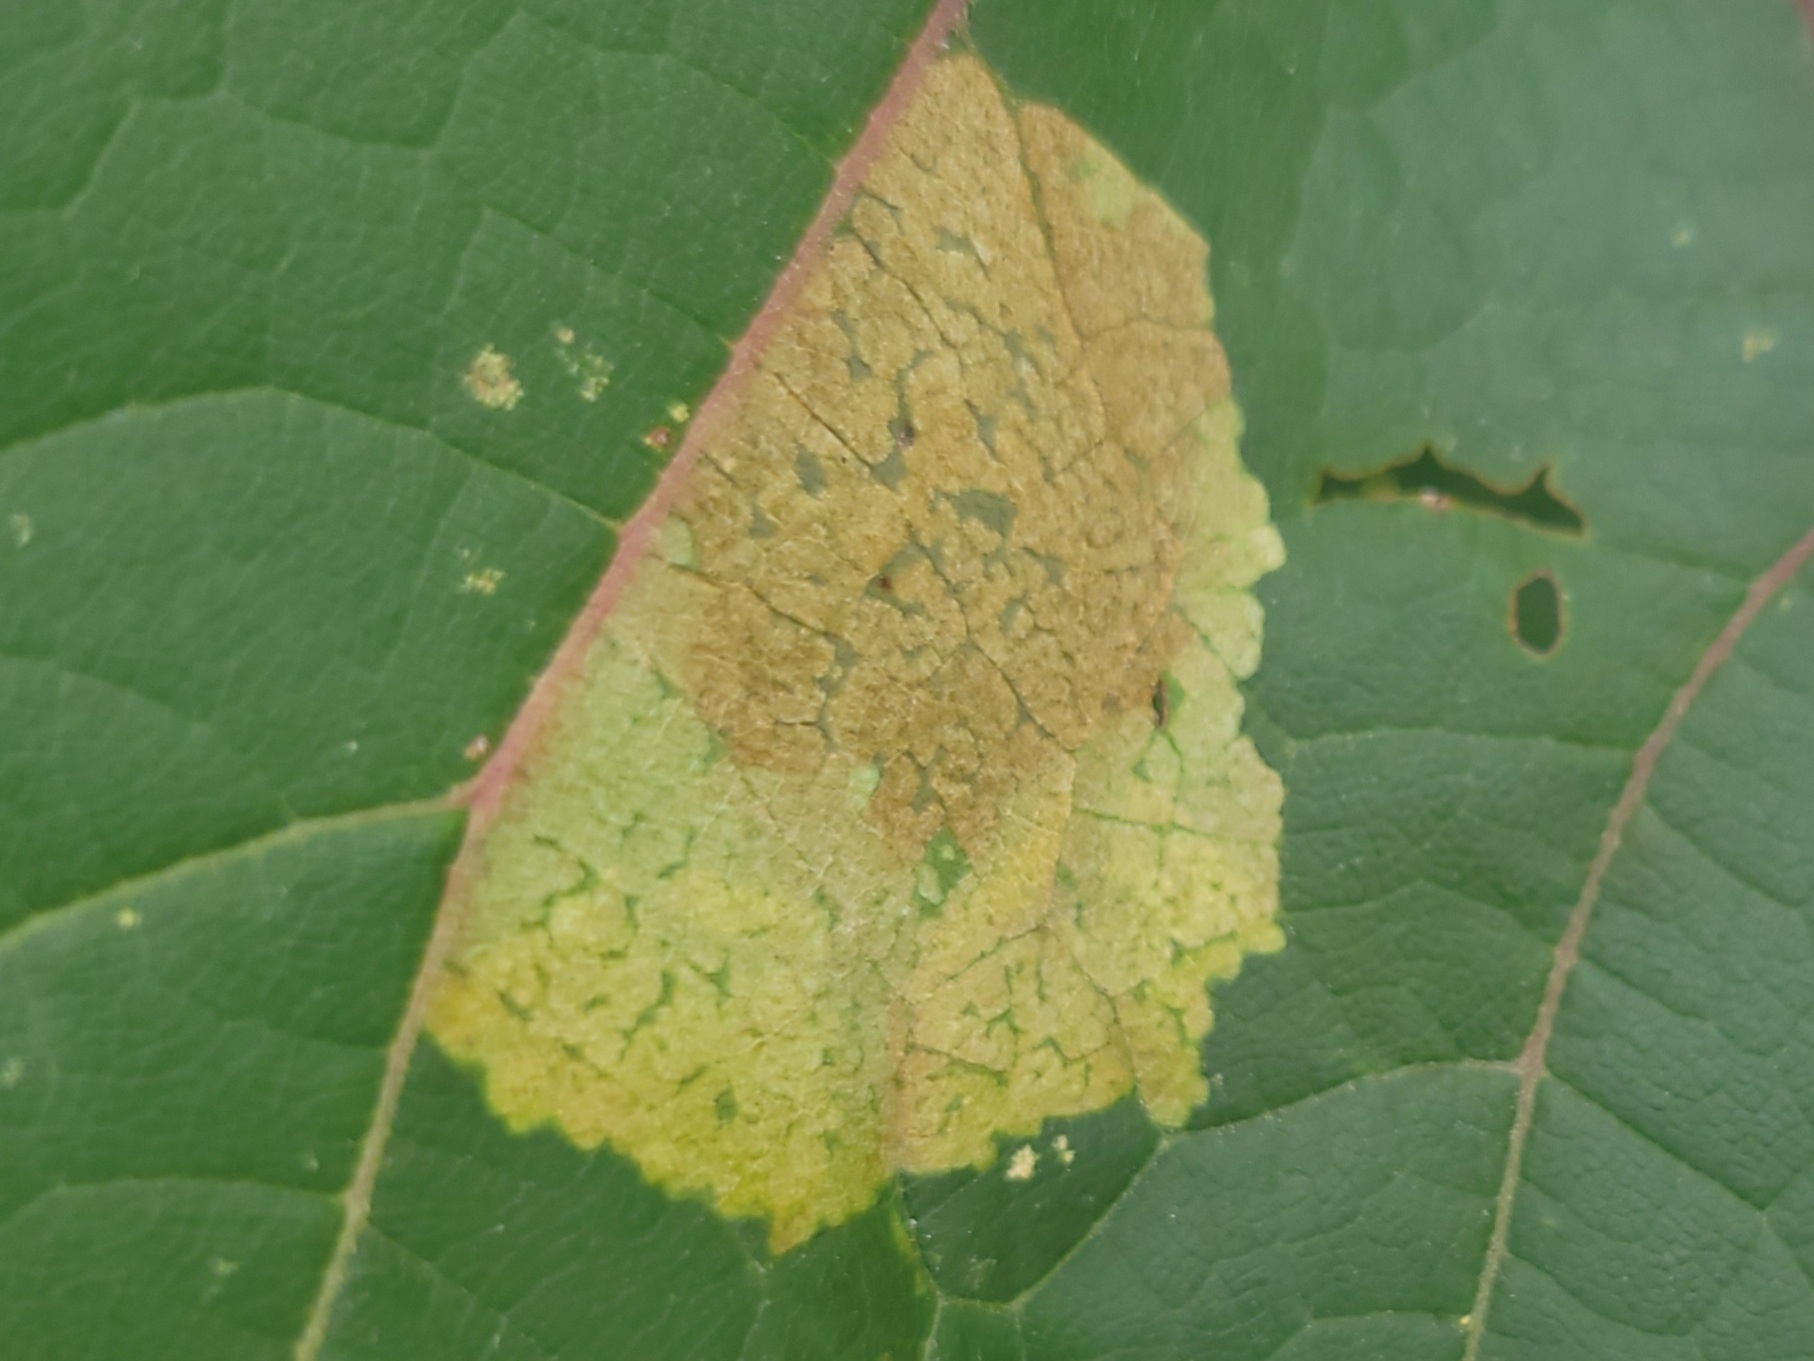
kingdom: Animalia
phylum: Arthropoda
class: Insecta
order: Lepidoptera
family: Zygaenidae
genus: Harrisina
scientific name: Harrisina americana
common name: Grapeleaf skeletonizer moth
